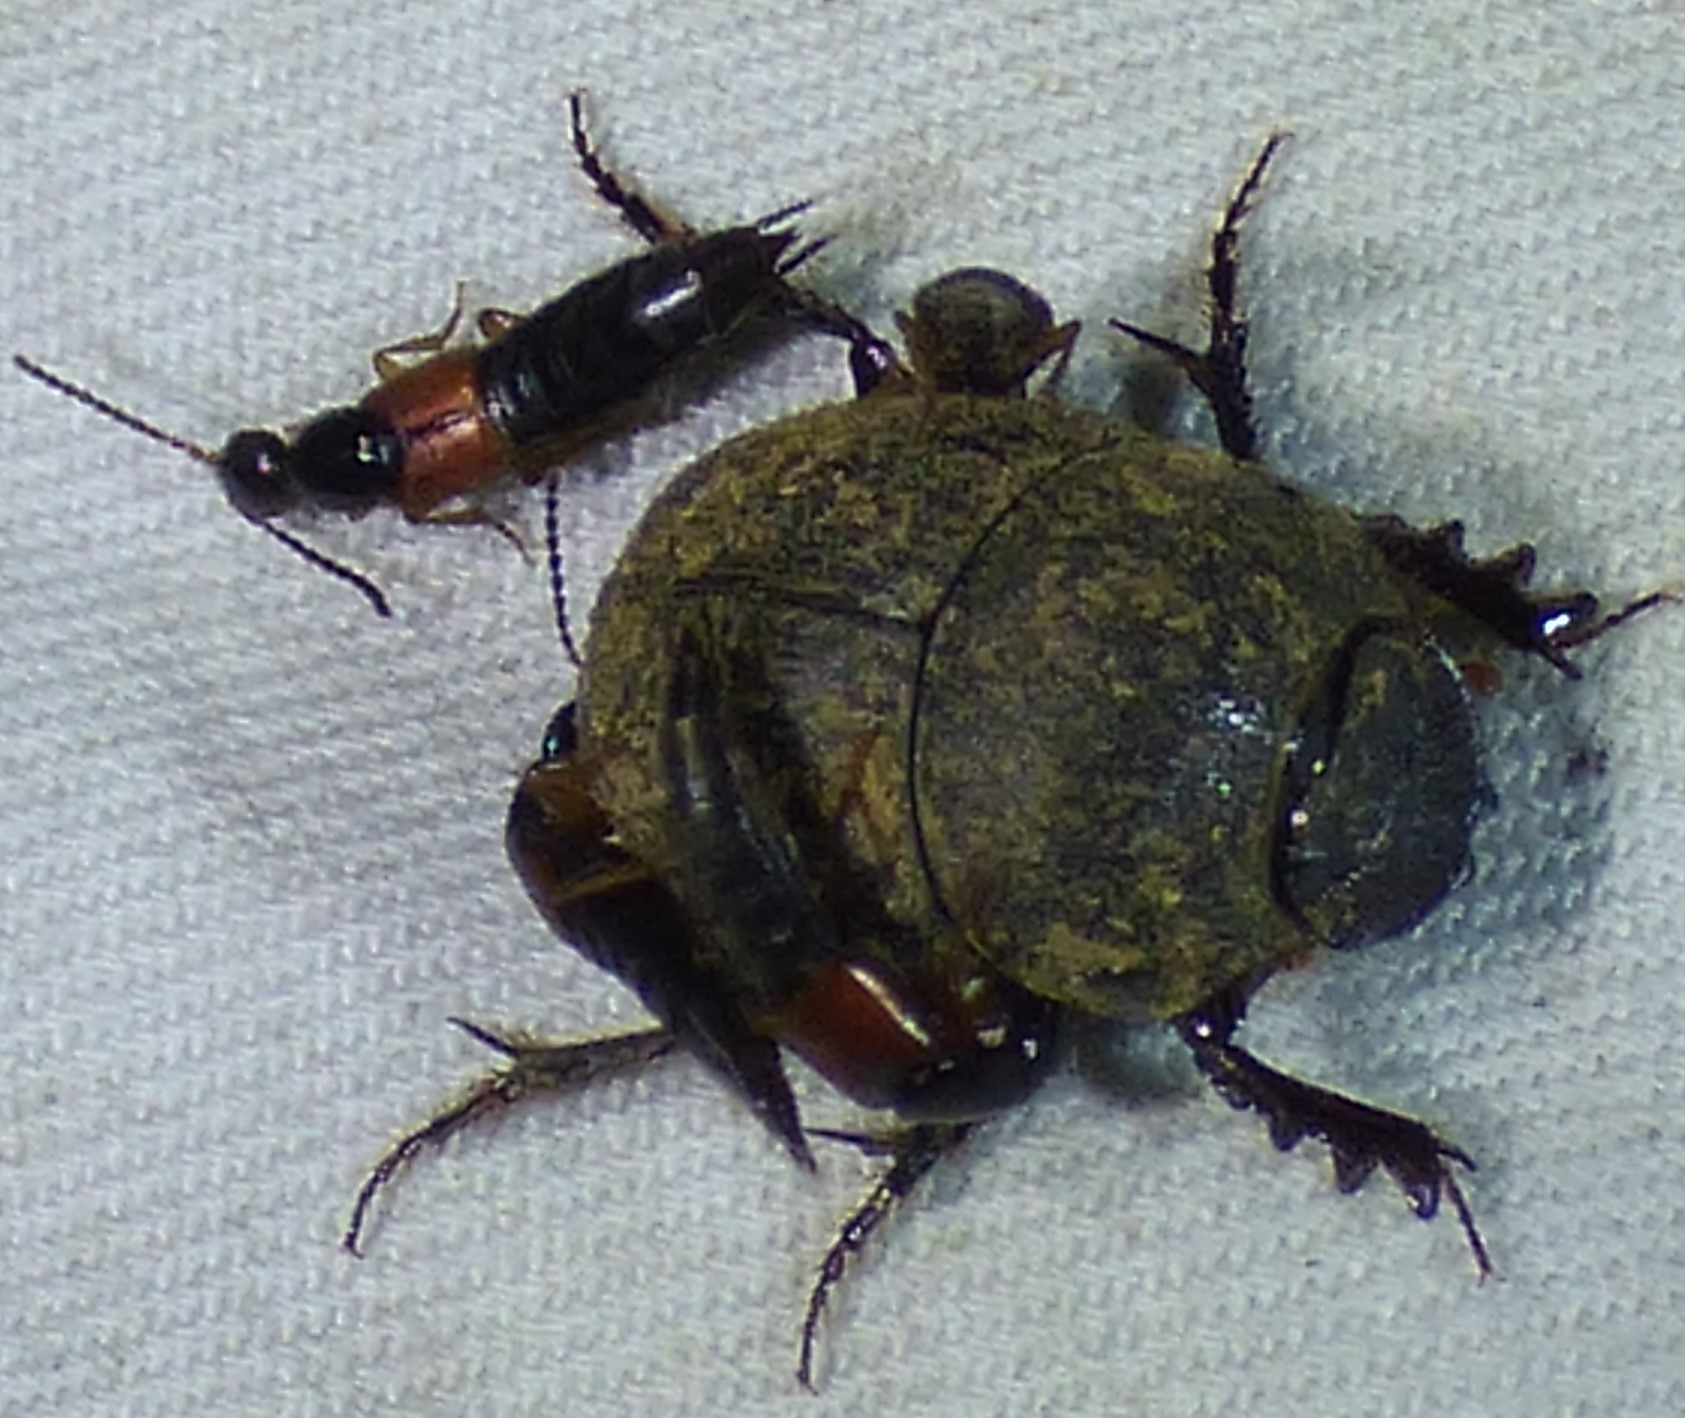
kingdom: Animalia
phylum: Arthropoda
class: Insecta
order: Coleoptera
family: Scarabaeidae
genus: Hamonthophagus
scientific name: Hamonthophagus depressus
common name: Scarab beetle
